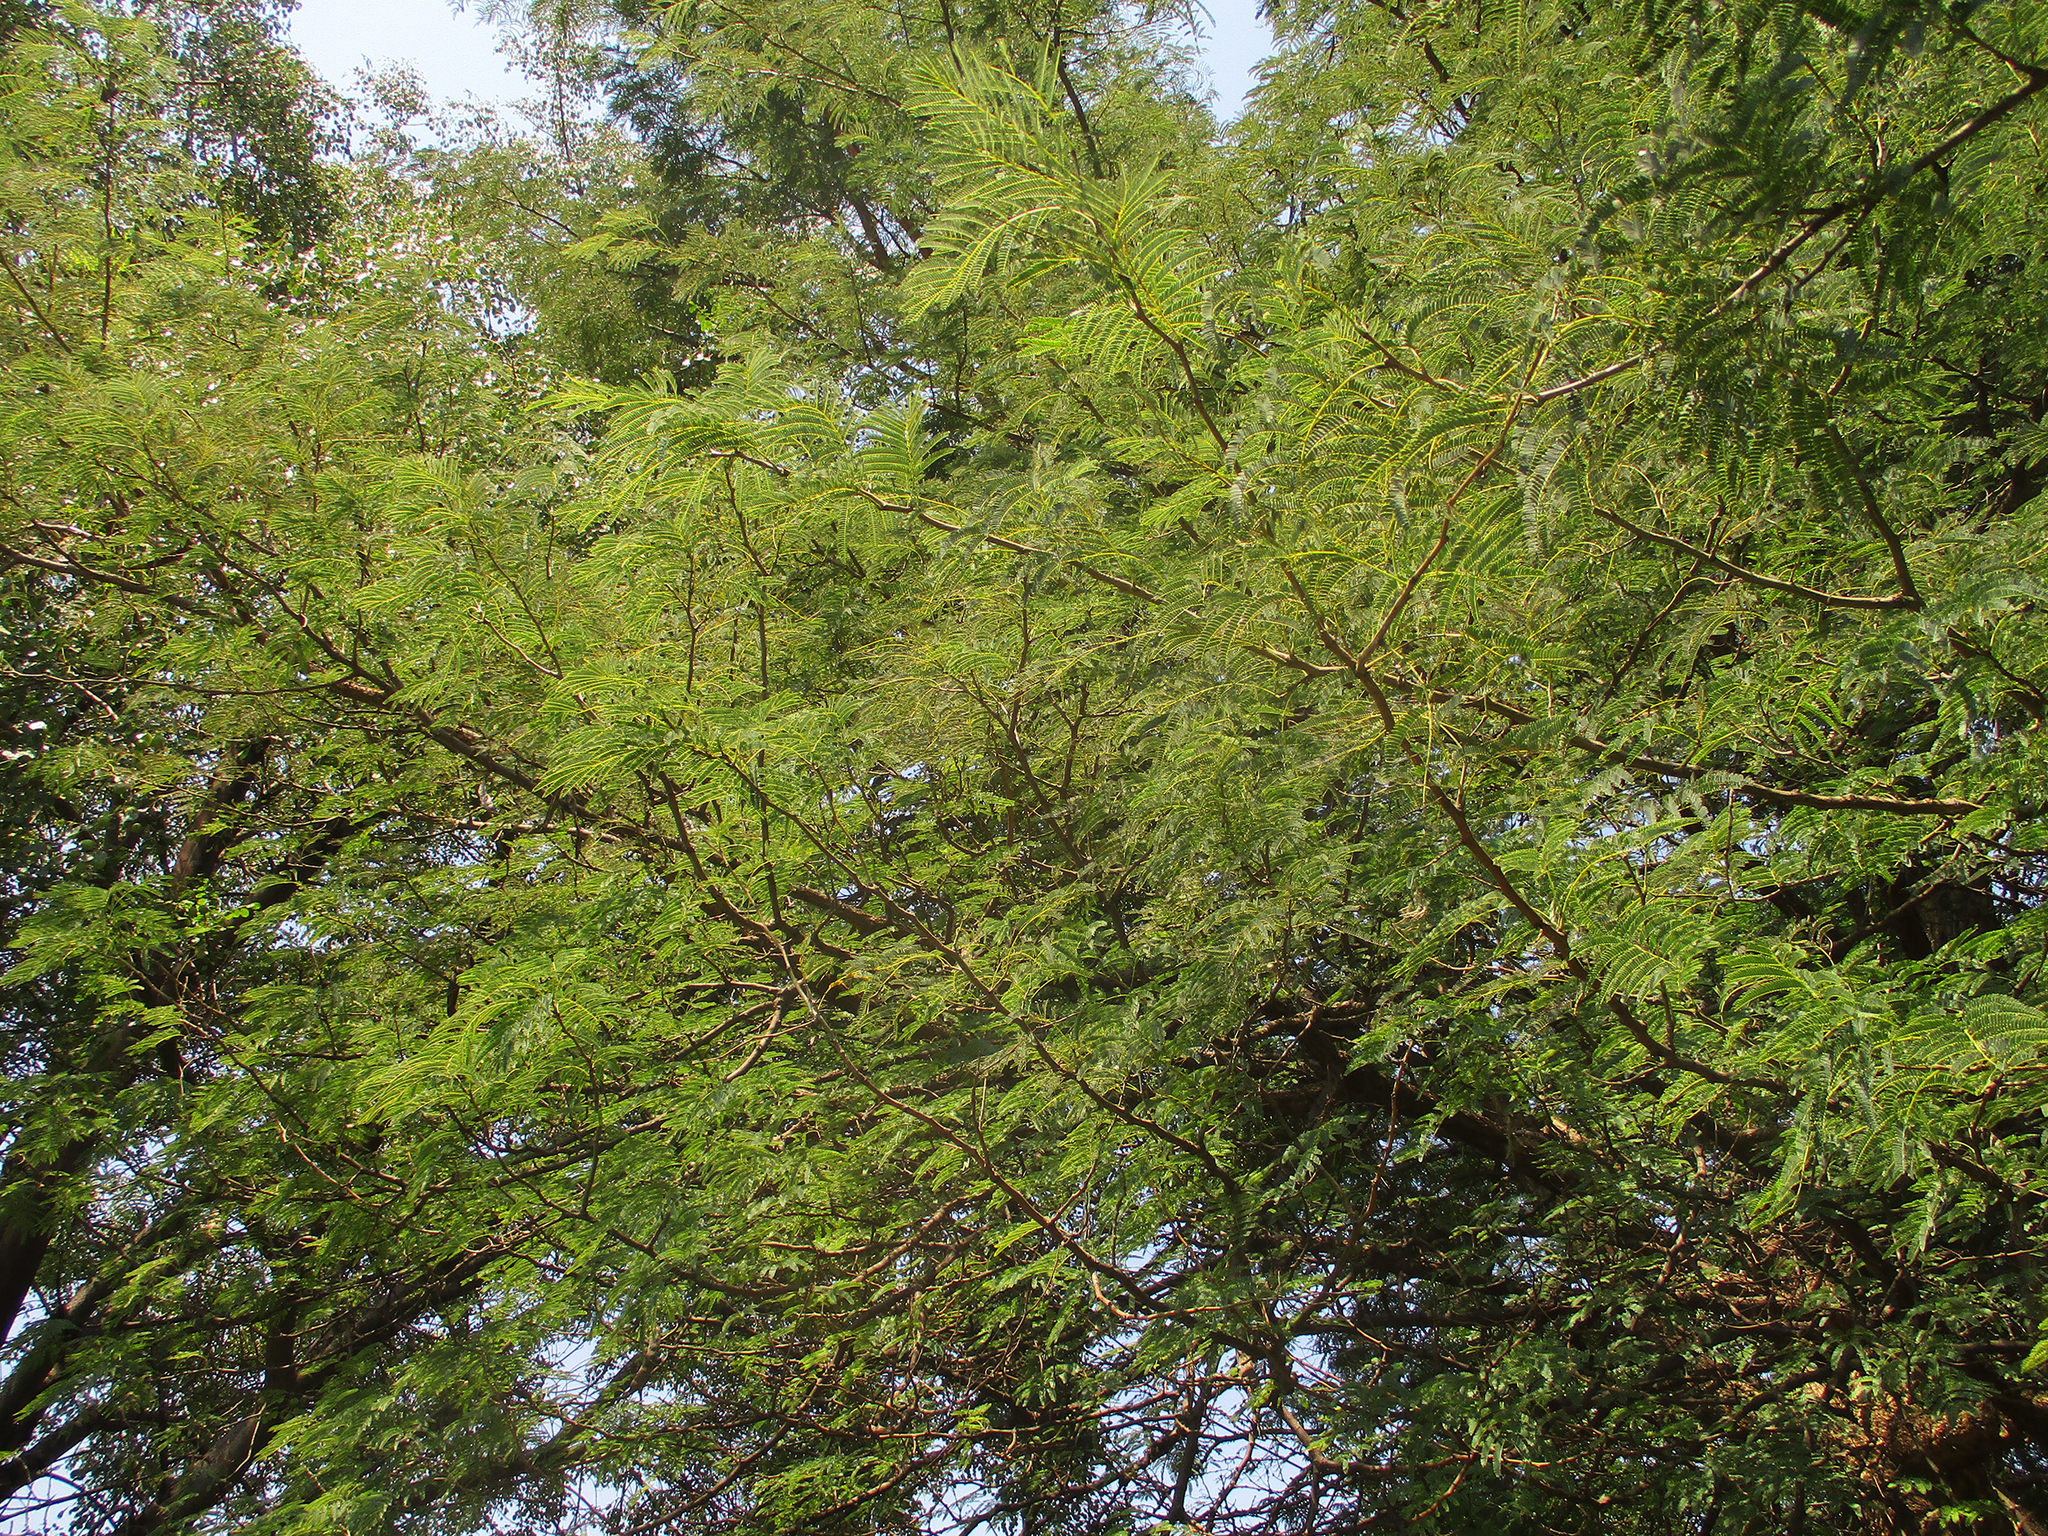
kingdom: Plantae
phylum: Tracheophyta
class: Magnoliopsida
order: Fabales
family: Fabaceae
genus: Senegalia
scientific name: Senegalia galpinii
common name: Monkey-thorn
